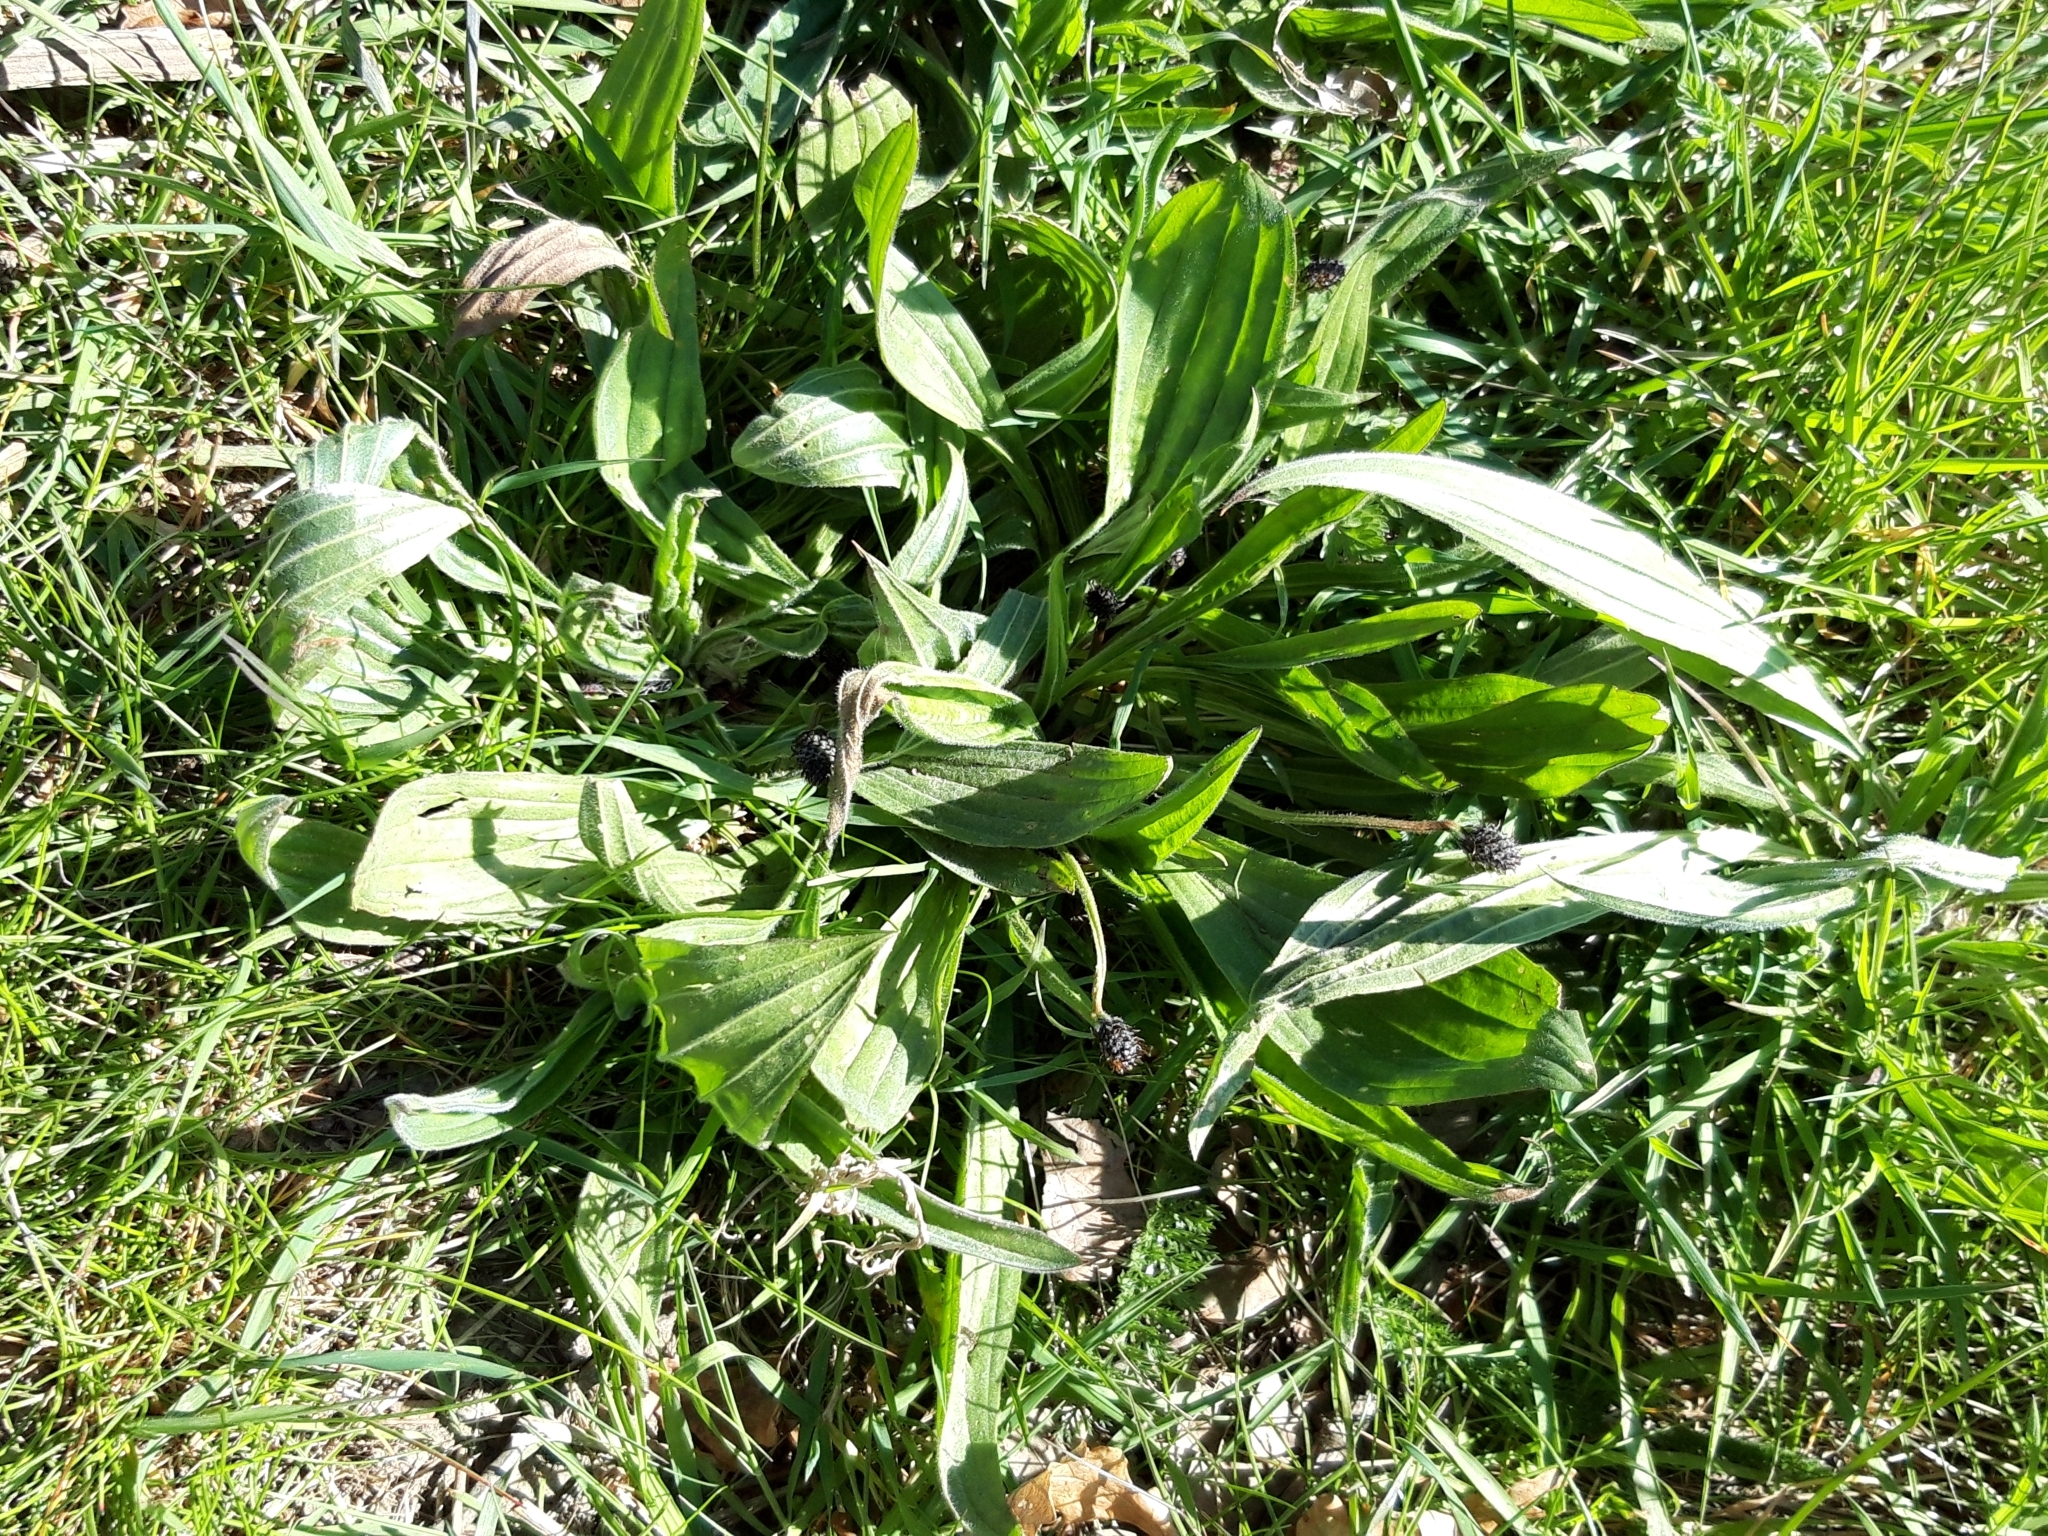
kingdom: Plantae
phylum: Tracheophyta
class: Magnoliopsida
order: Lamiales
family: Plantaginaceae
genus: Plantago
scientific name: Plantago lanceolata
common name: Ribwort plantain
